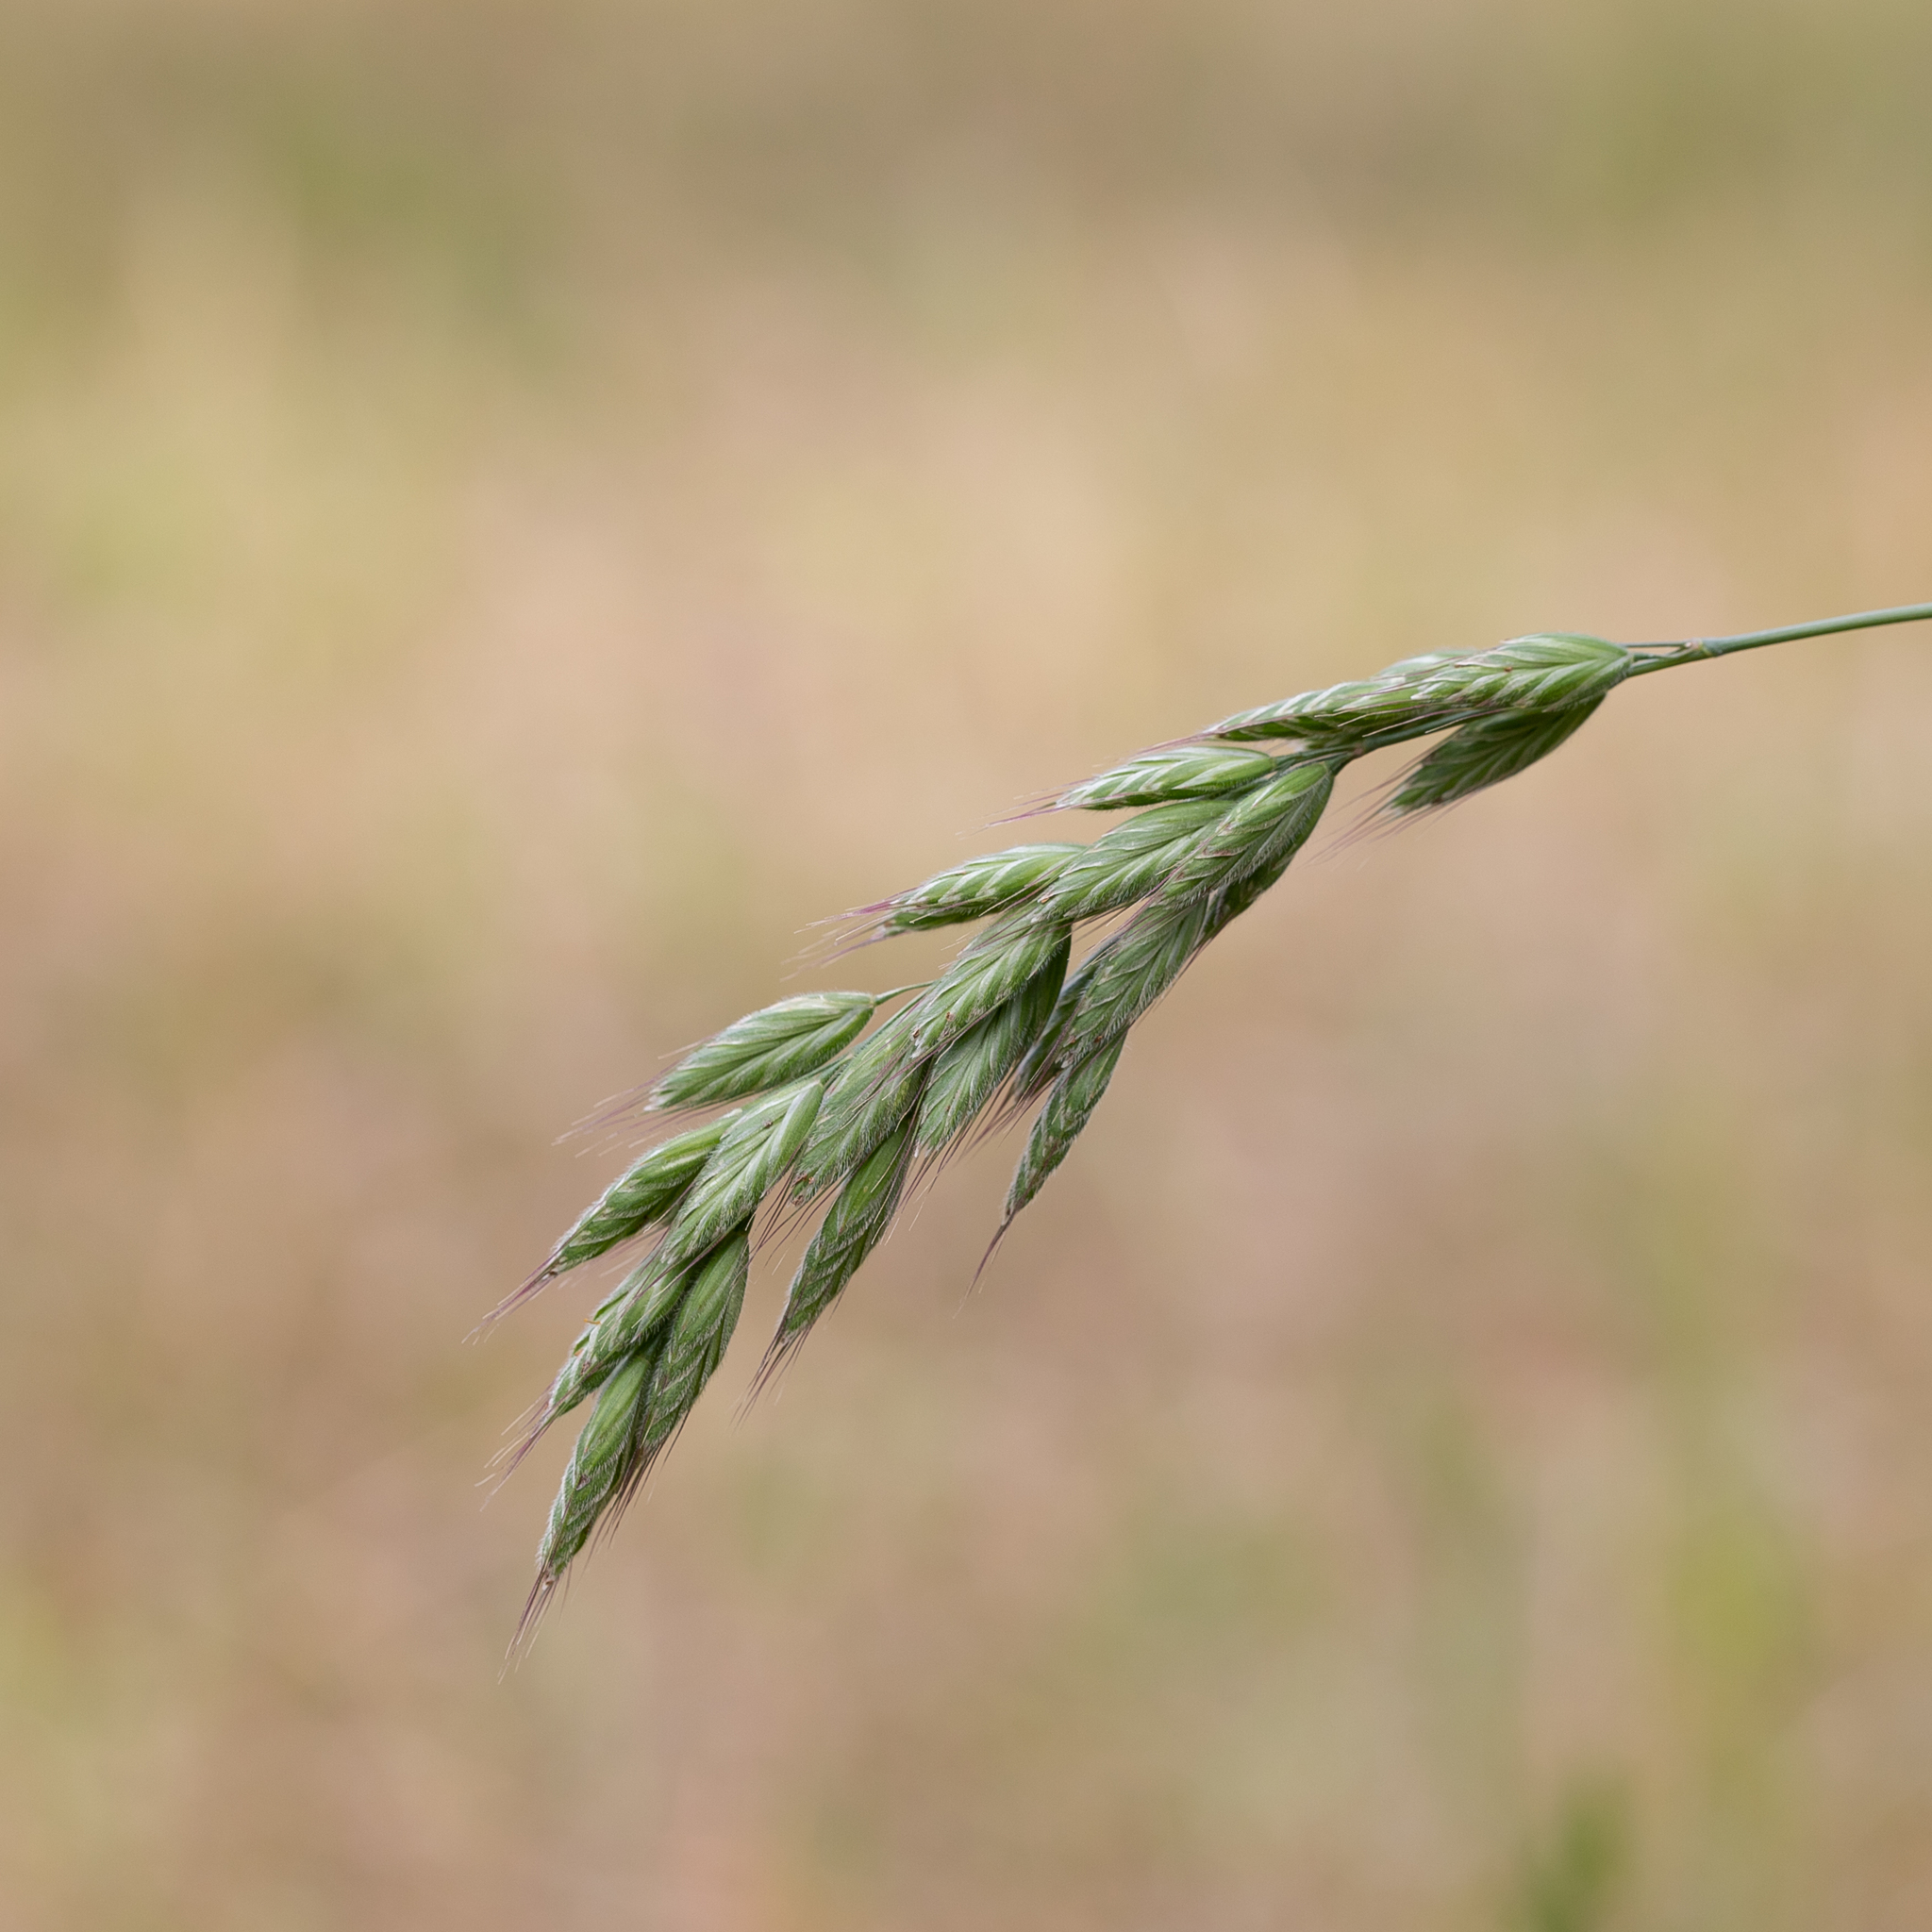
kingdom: Plantae
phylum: Tracheophyta
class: Liliopsida
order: Poales
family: Poaceae
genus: Bromus
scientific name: Bromus hordeaceus
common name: Soft brome
